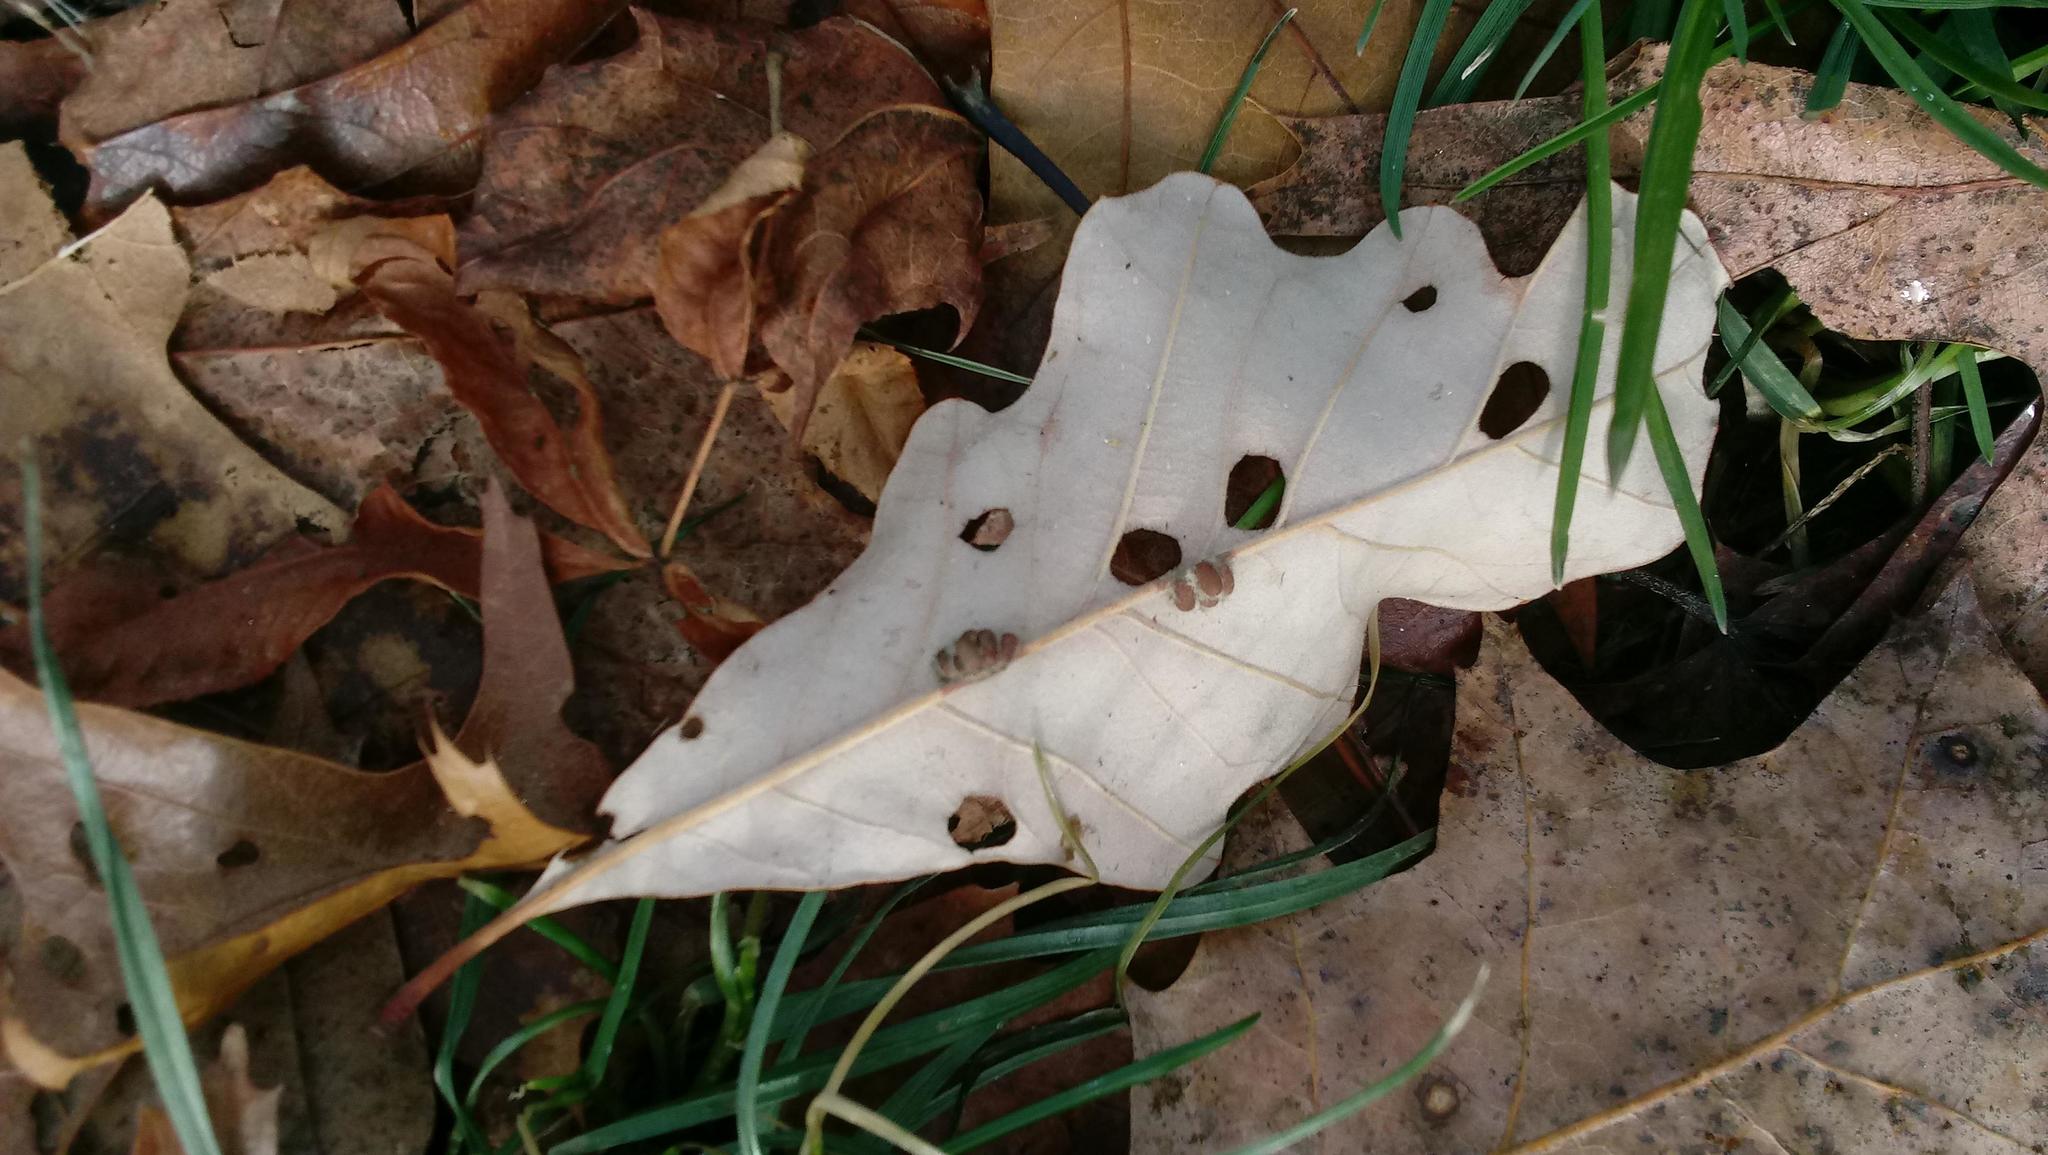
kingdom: Animalia
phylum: Arthropoda
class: Insecta
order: Hymenoptera
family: Cynipidae
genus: Andricus
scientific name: Andricus Druon ignotum
